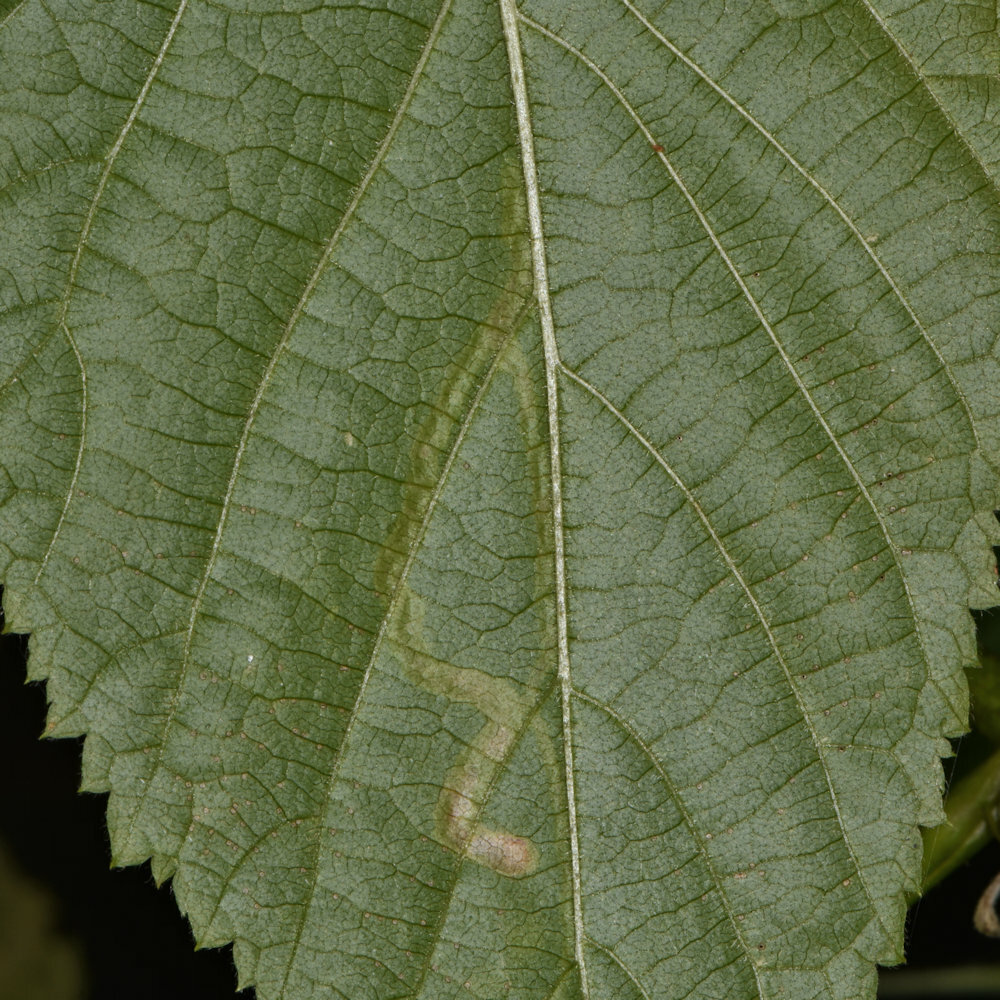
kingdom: Animalia
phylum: Arthropoda
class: Insecta
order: Diptera
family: Agromyzidae
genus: Agromyza
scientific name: Agromyza vockerothi
